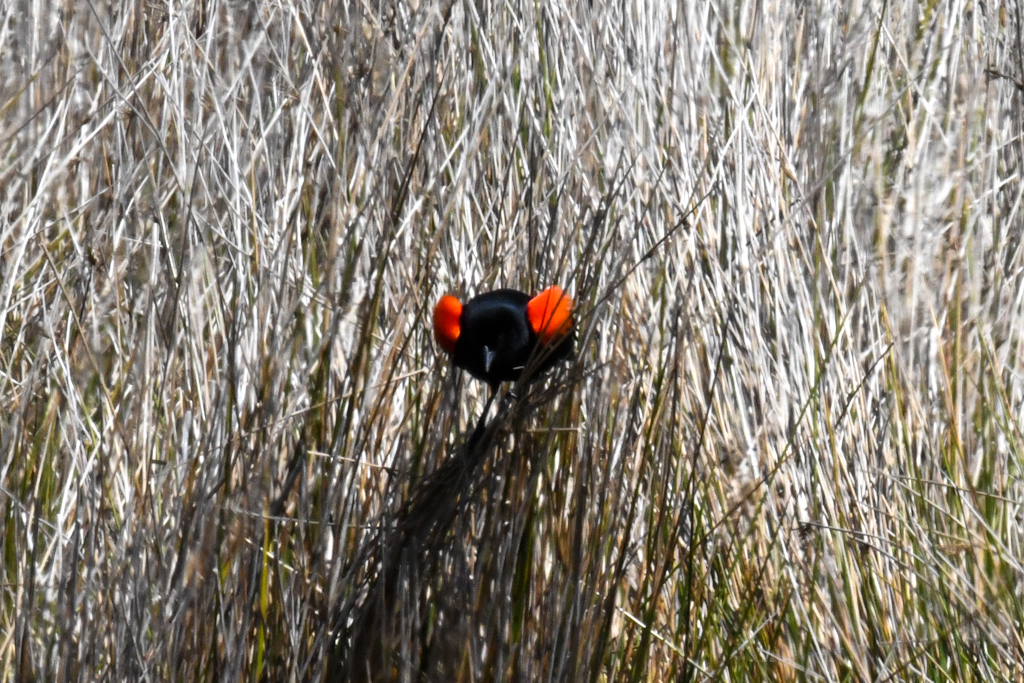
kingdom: Animalia
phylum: Chordata
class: Aves
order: Passeriformes
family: Icteridae
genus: Agelaius
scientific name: Agelaius phoeniceus
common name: Red-winged blackbird
